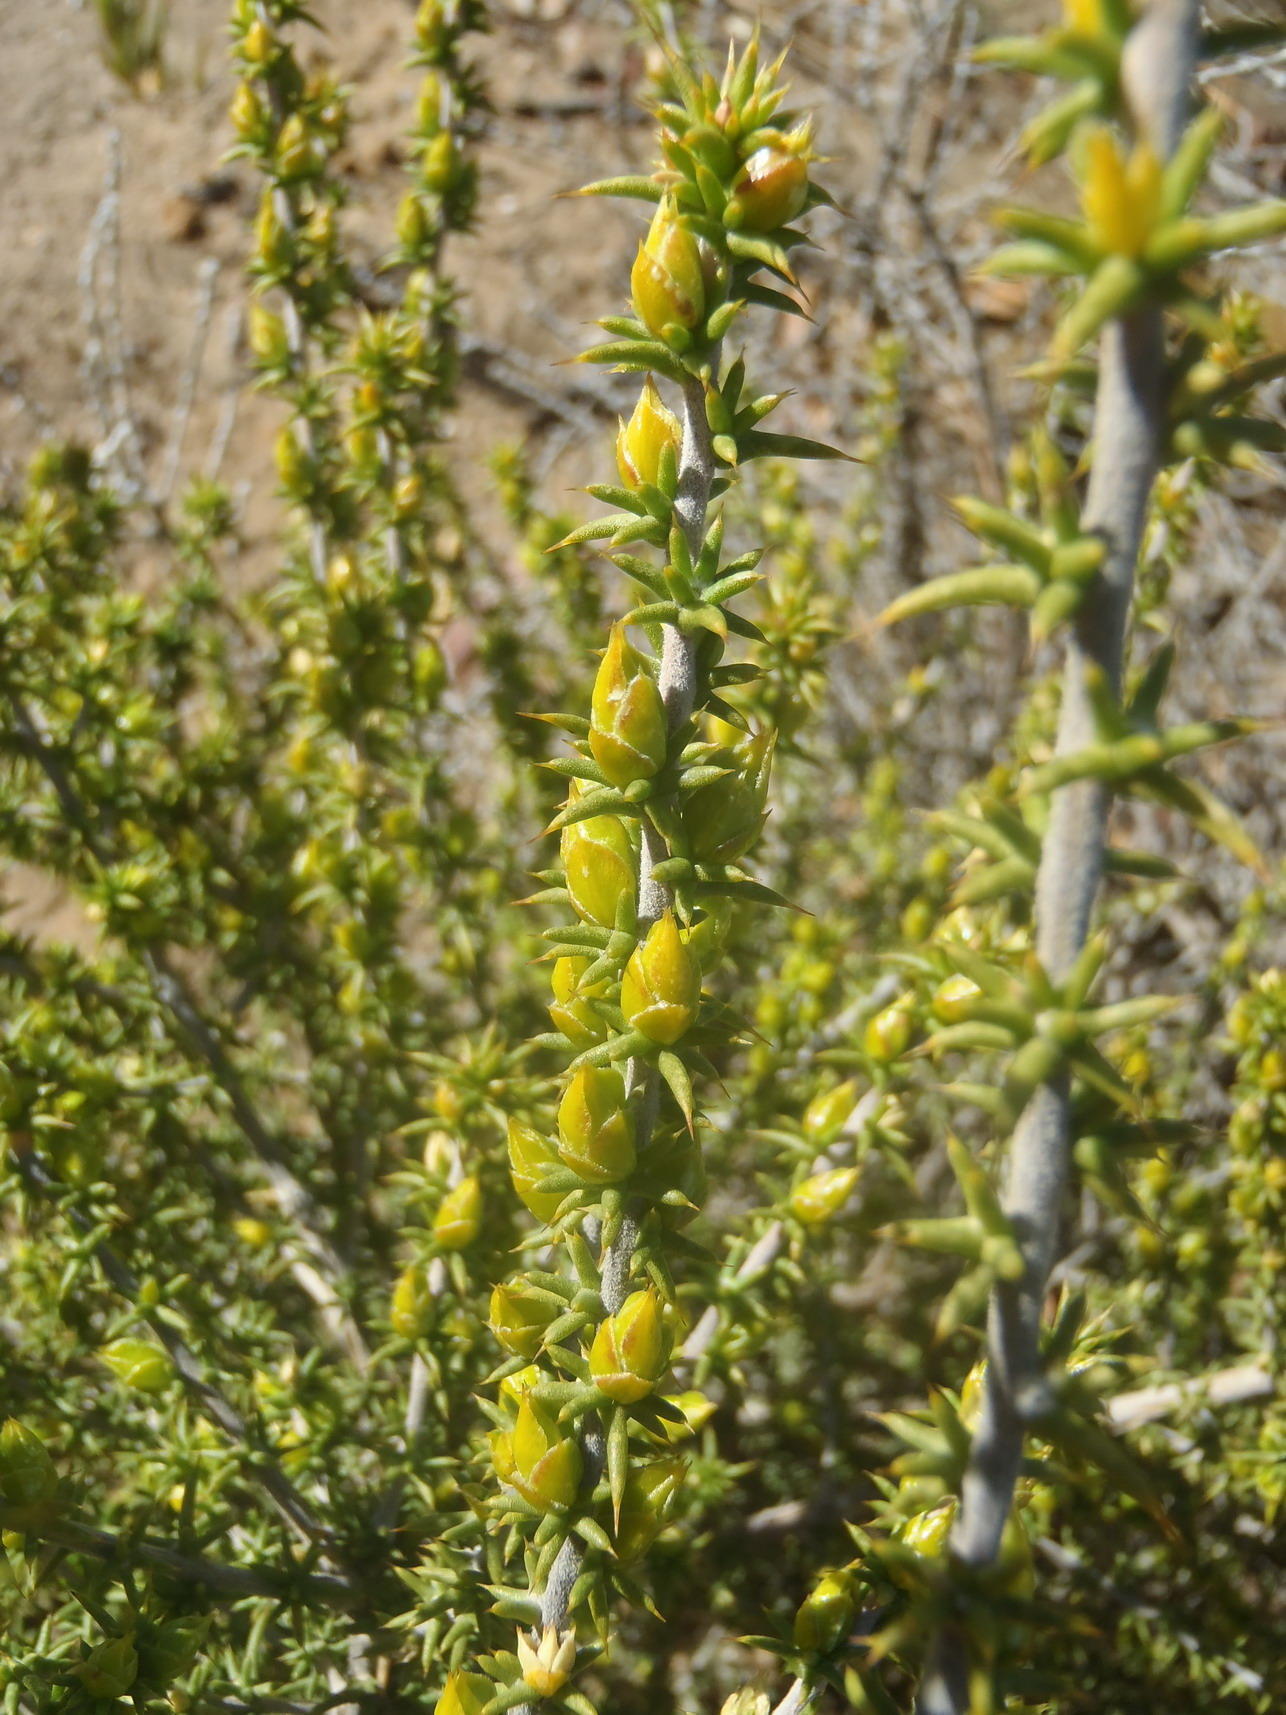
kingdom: Plantae
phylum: Tracheophyta
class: Magnoliopsida
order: Fabales
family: Fabaceae
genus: Aspalathus
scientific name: Aspalathus aciphylla
